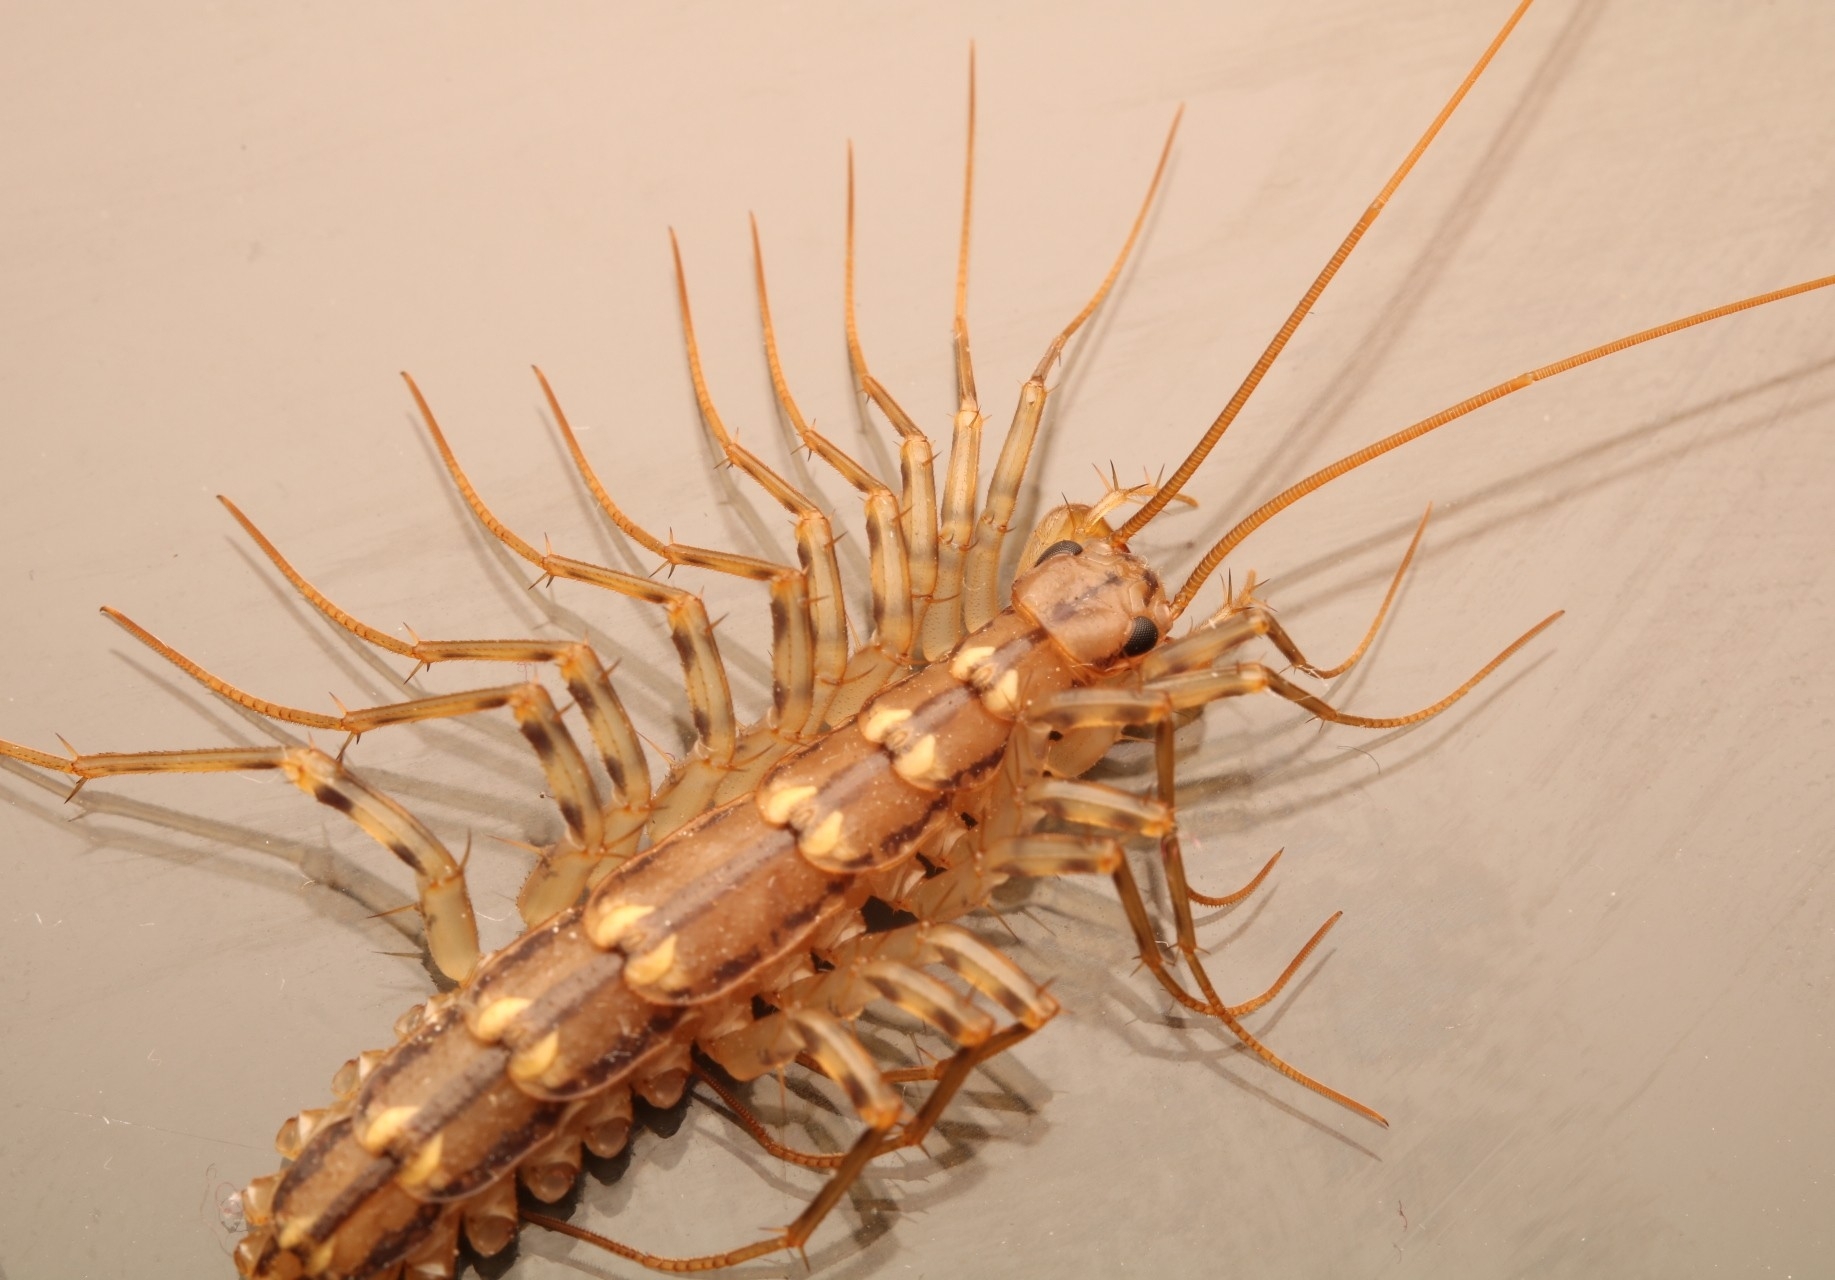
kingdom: Animalia
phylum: Arthropoda
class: Chilopoda
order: Scutigeromorpha
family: Scutigeridae
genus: Scutigera
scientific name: Scutigera coleoptrata
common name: House centipede
